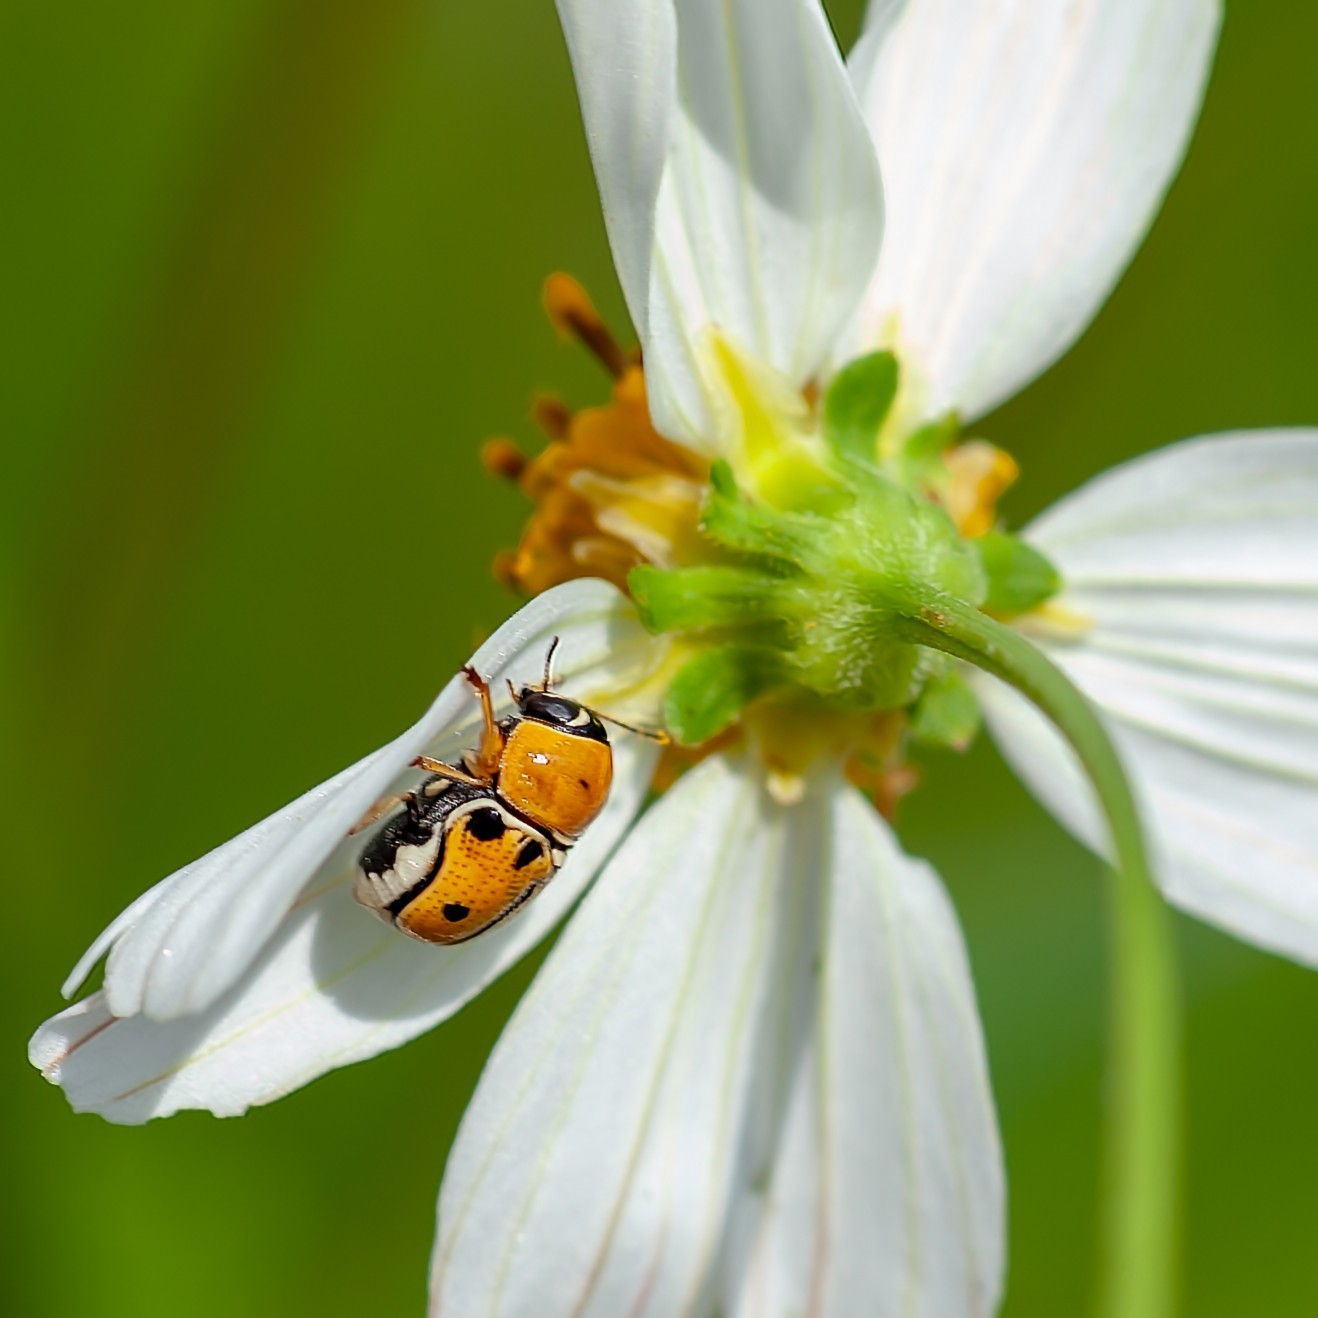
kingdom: Animalia
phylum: Arthropoda
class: Insecta
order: Coleoptera
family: Chrysomelidae
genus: Griburius
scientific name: Griburius larvatus
